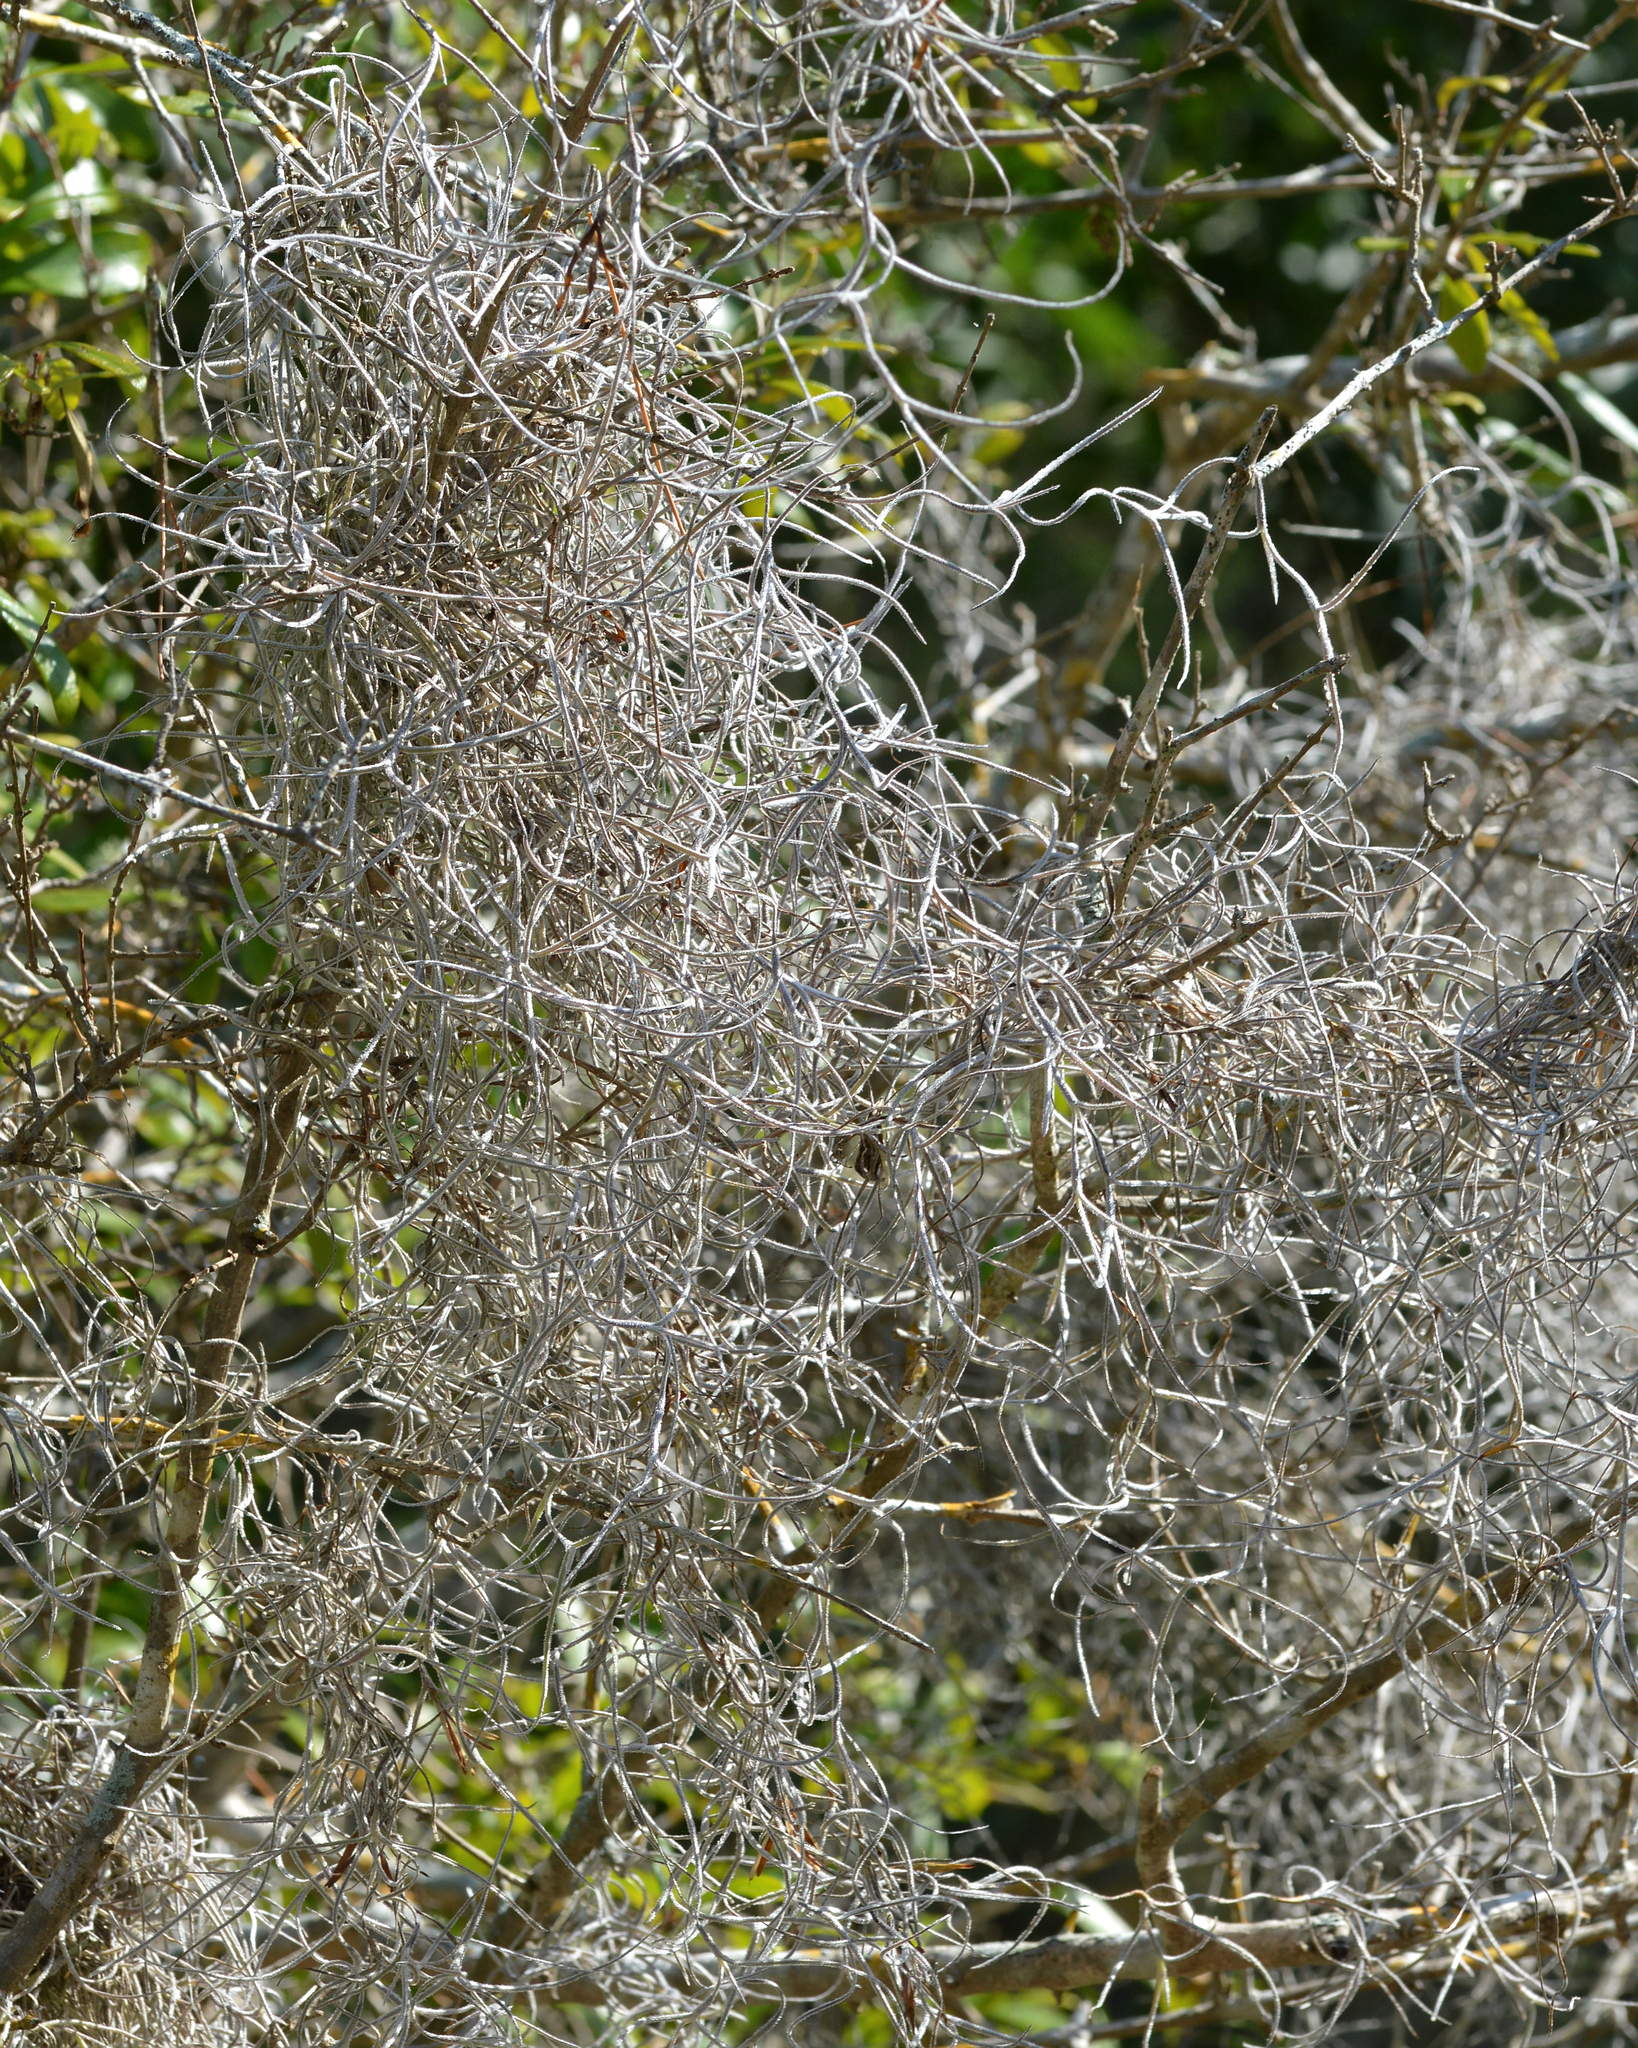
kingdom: Plantae
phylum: Tracheophyta
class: Liliopsida
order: Poales
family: Bromeliaceae
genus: Tillandsia
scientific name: Tillandsia usneoides
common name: Spanish moss
